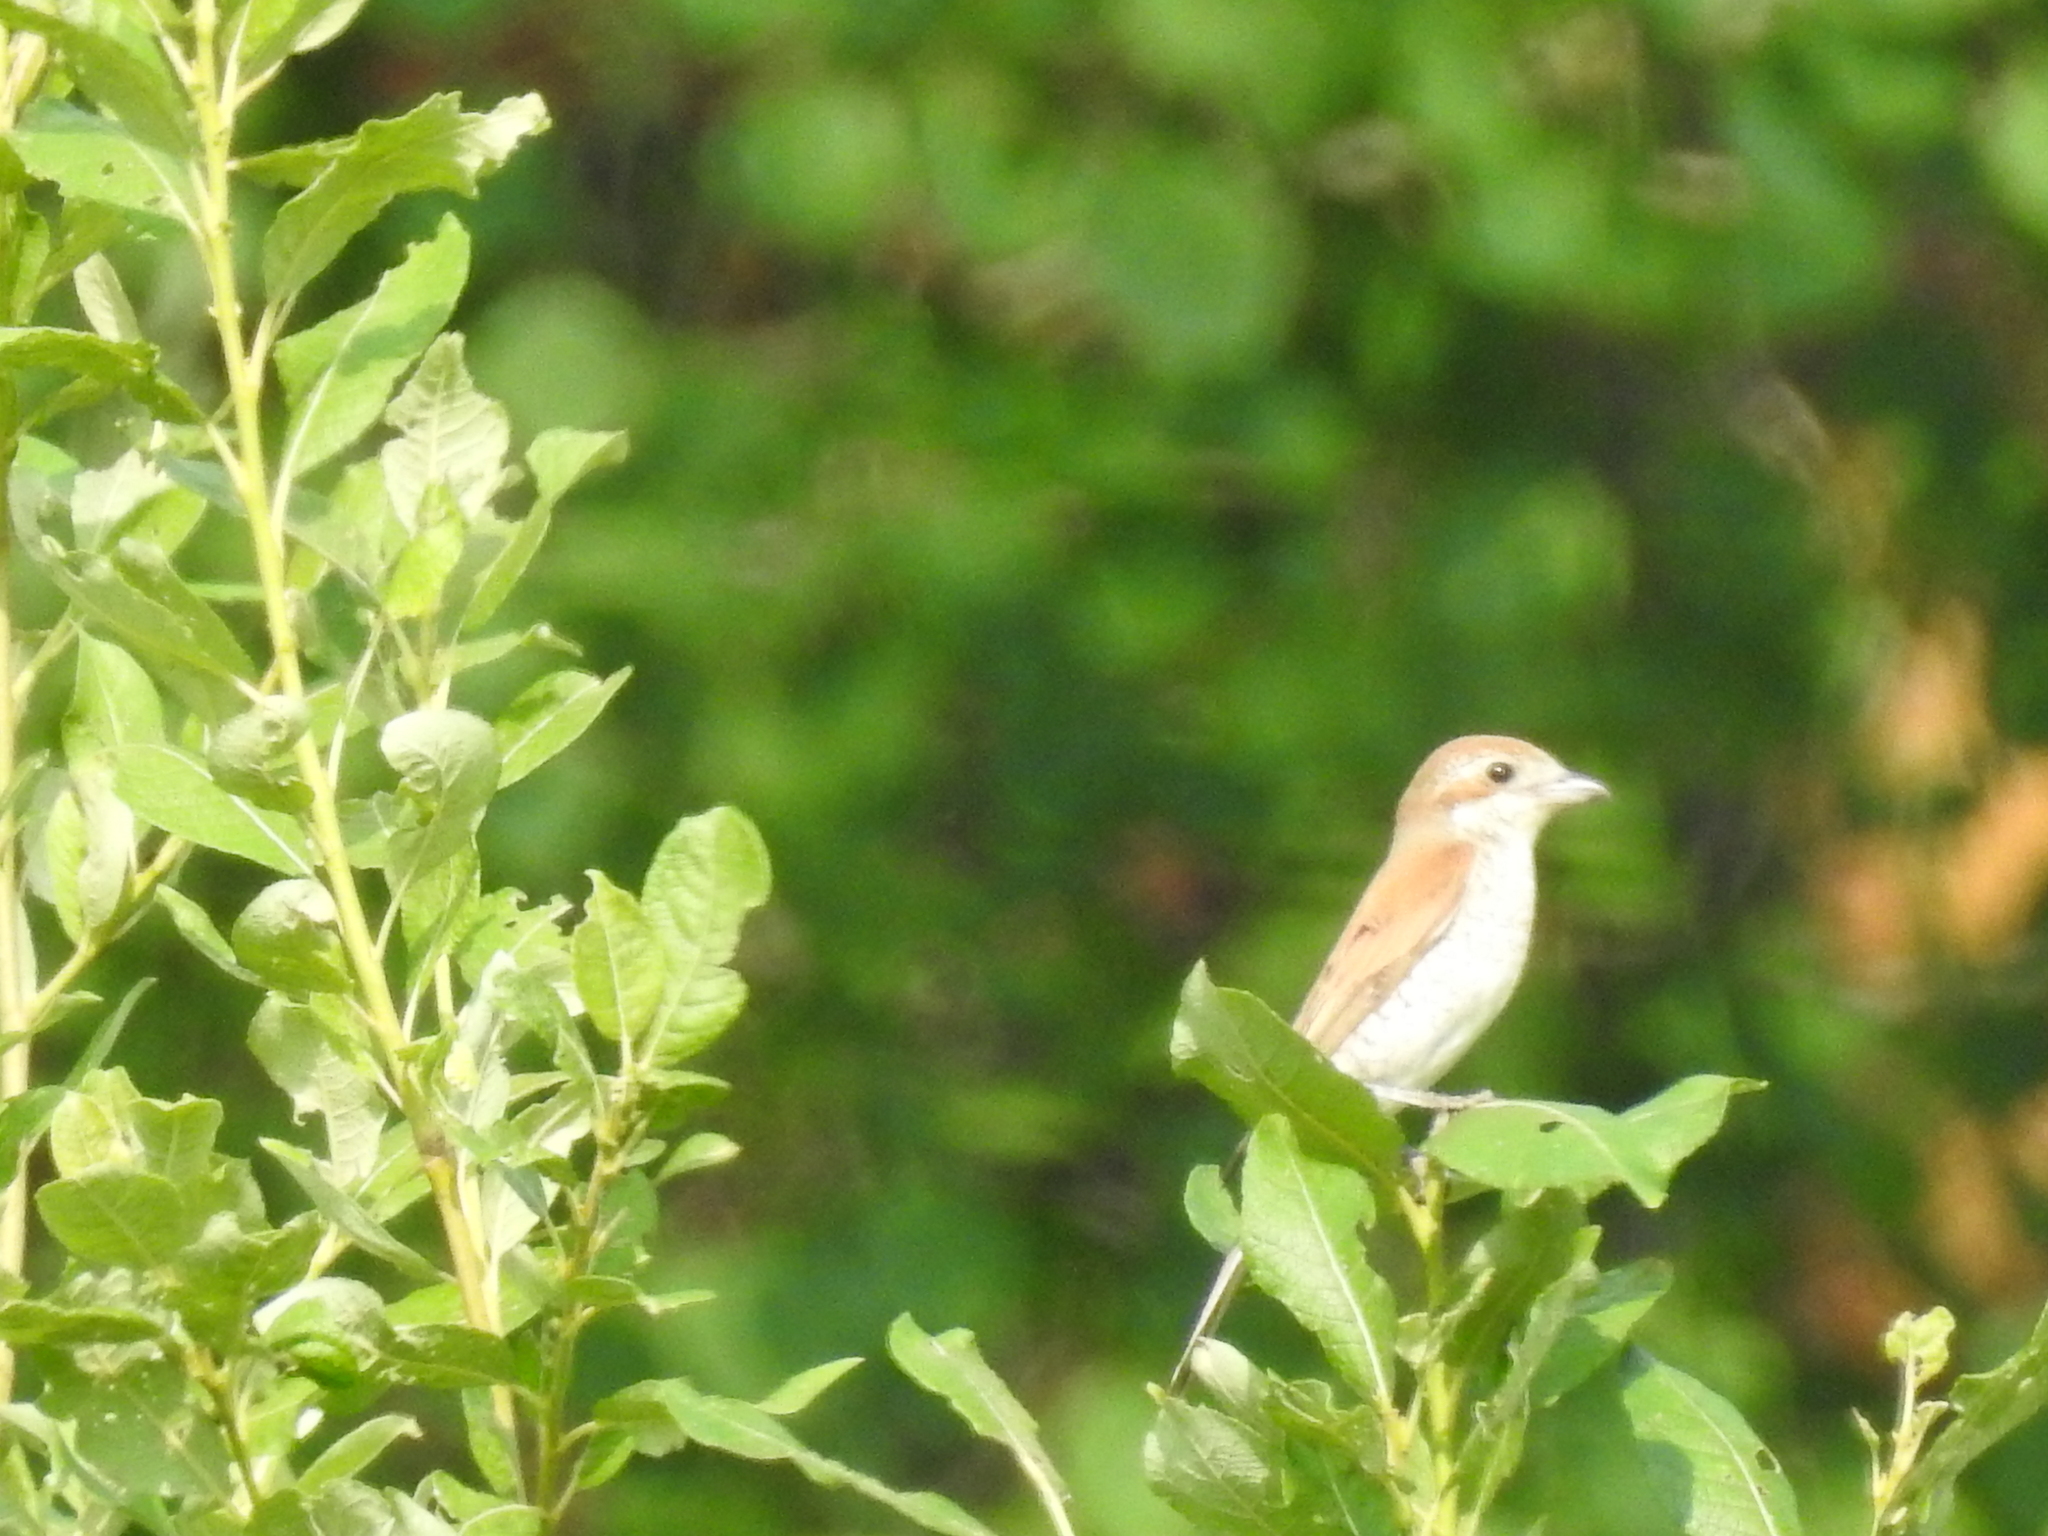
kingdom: Animalia
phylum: Chordata
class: Aves
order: Passeriformes
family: Laniidae
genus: Lanius
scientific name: Lanius collurio
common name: Red-backed shrike
